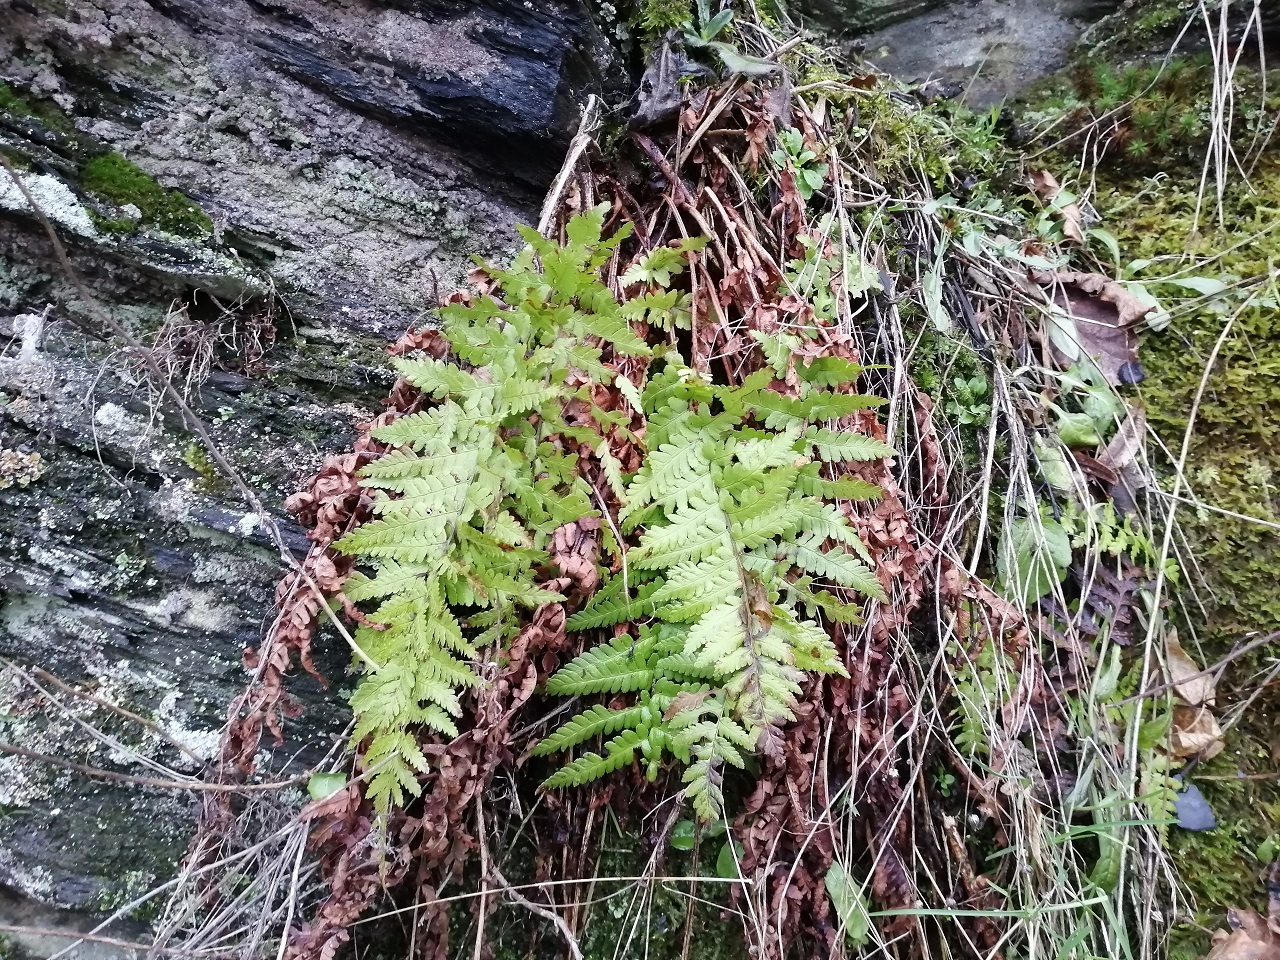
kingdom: Plantae
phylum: Tracheophyta
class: Polypodiopsida
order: Polypodiales
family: Dryopteridaceae
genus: Dryopteris
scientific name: Dryopteris filix-mas
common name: Male fern
